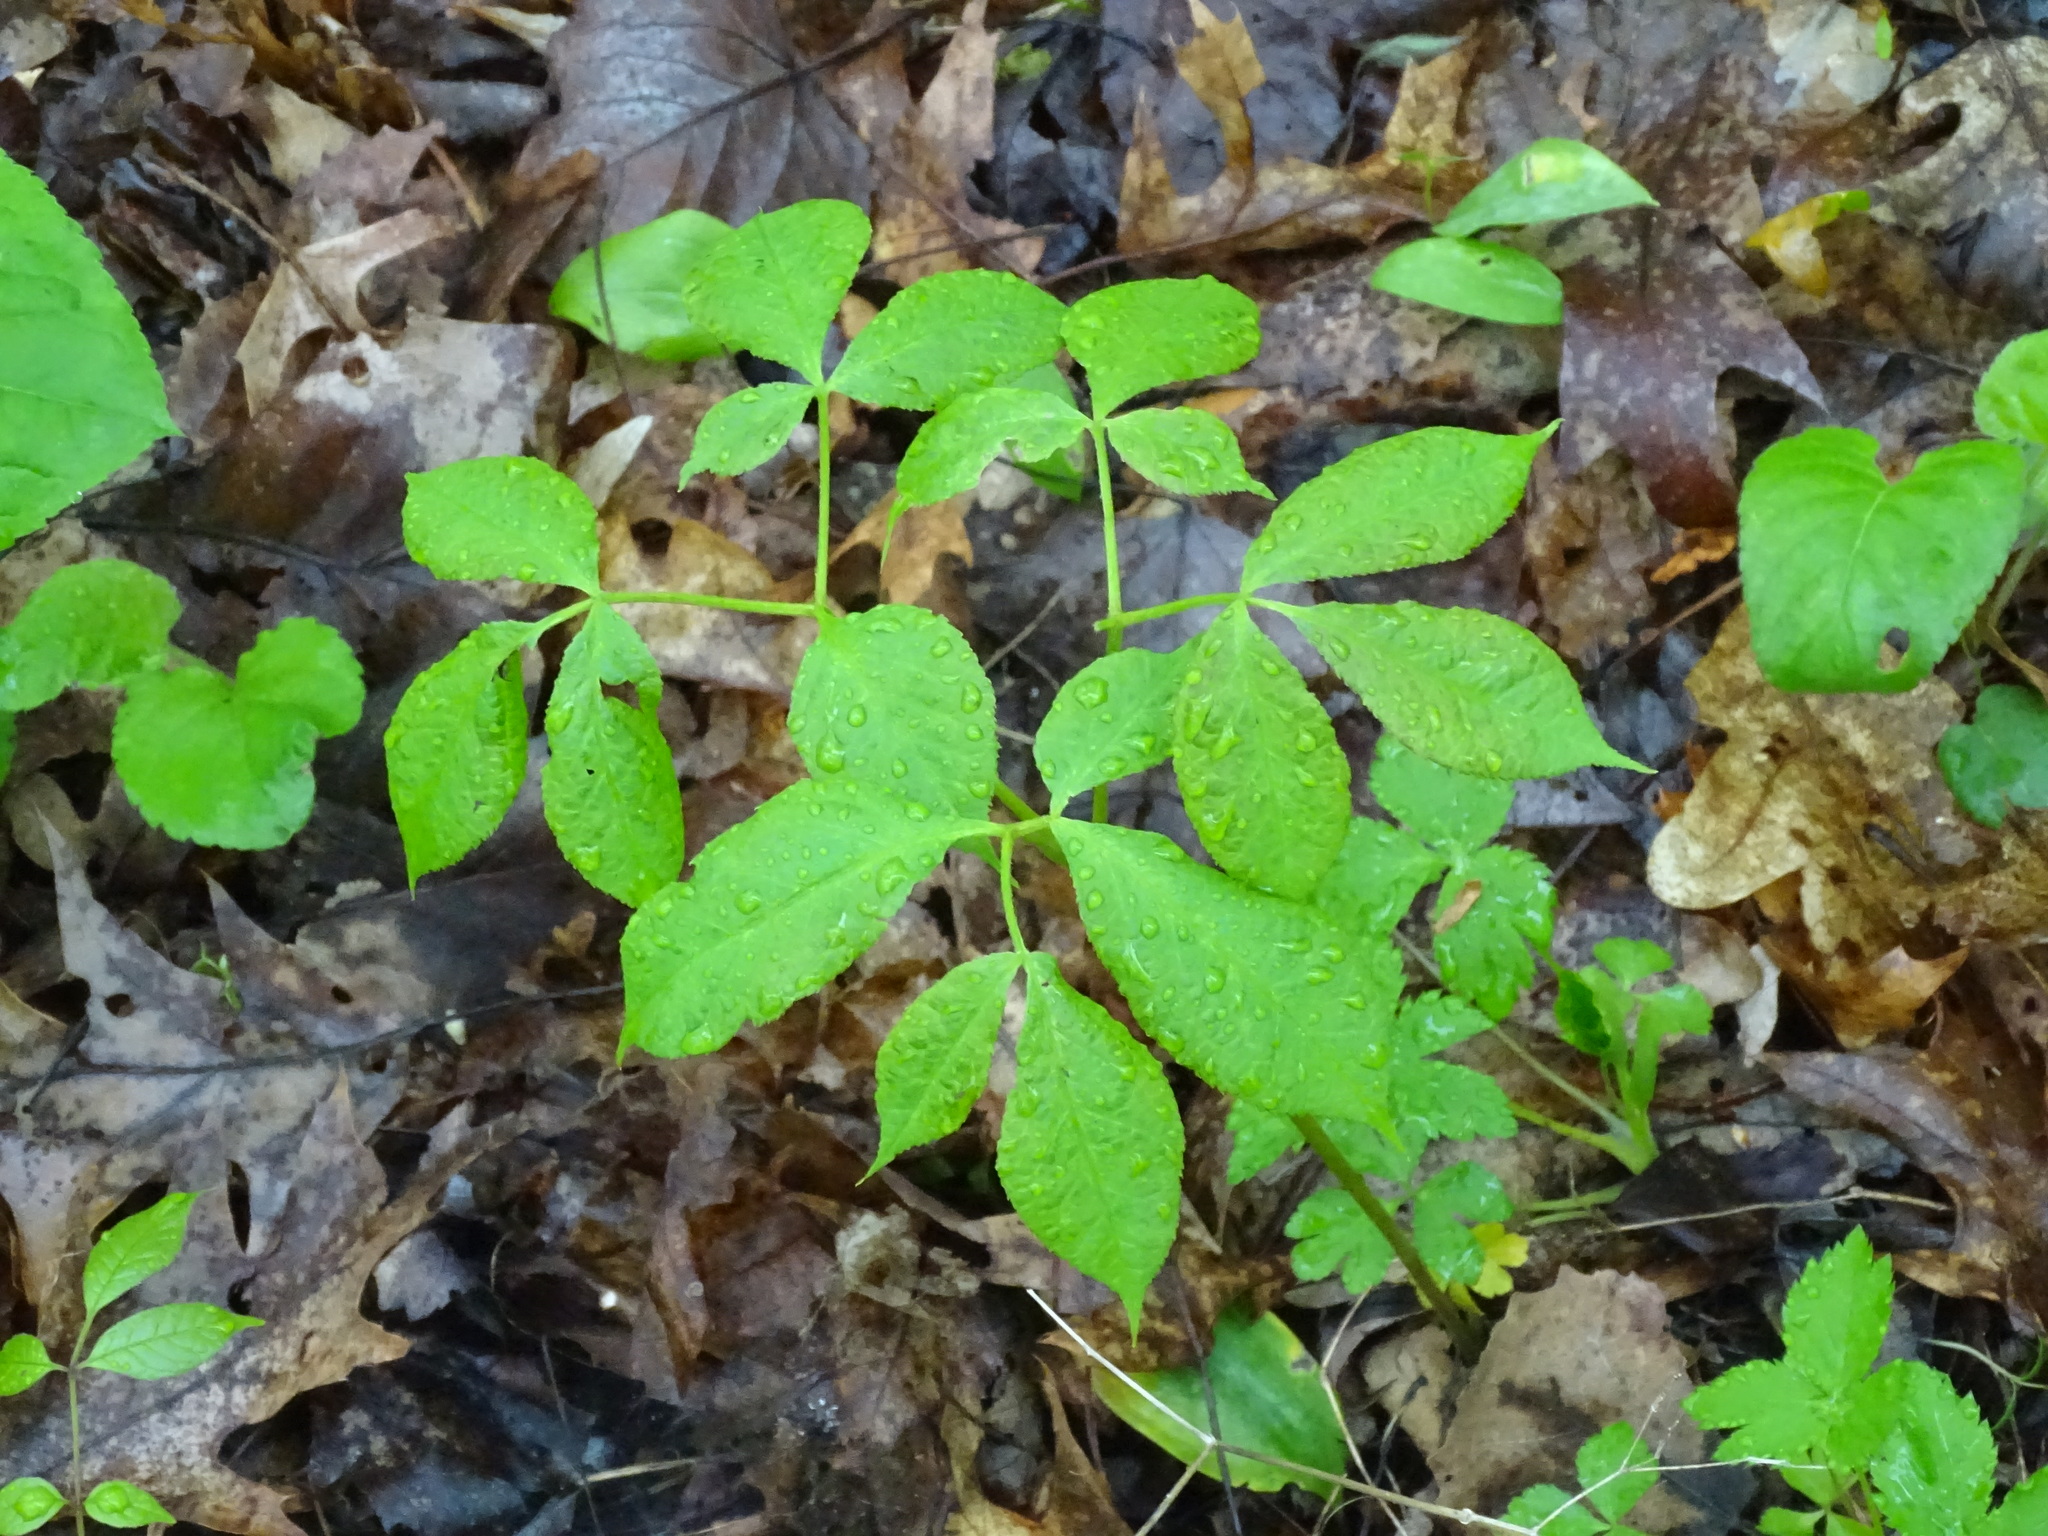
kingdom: Plantae
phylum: Tracheophyta
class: Magnoliopsida
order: Apiales
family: Araliaceae
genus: Aralia
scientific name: Aralia nudicaulis
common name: Wild sarsaparilla
